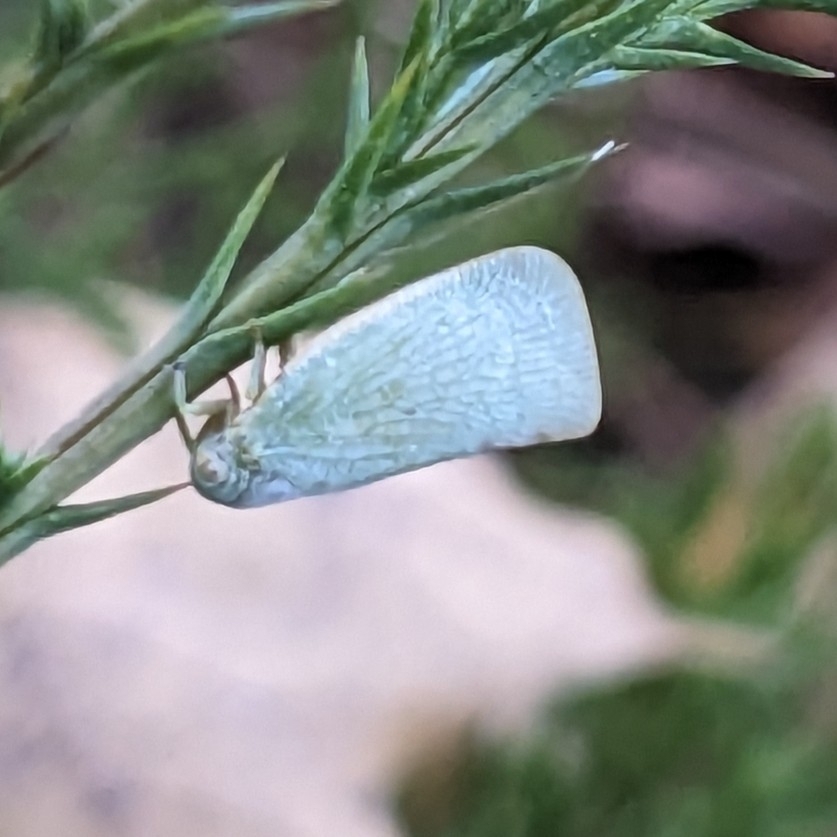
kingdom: Animalia
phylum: Arthropoda
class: Insecta
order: Hemiptera
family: Flatidae
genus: Flatormenis
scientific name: Flatormenis proxima
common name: Northern flatid planthopper
